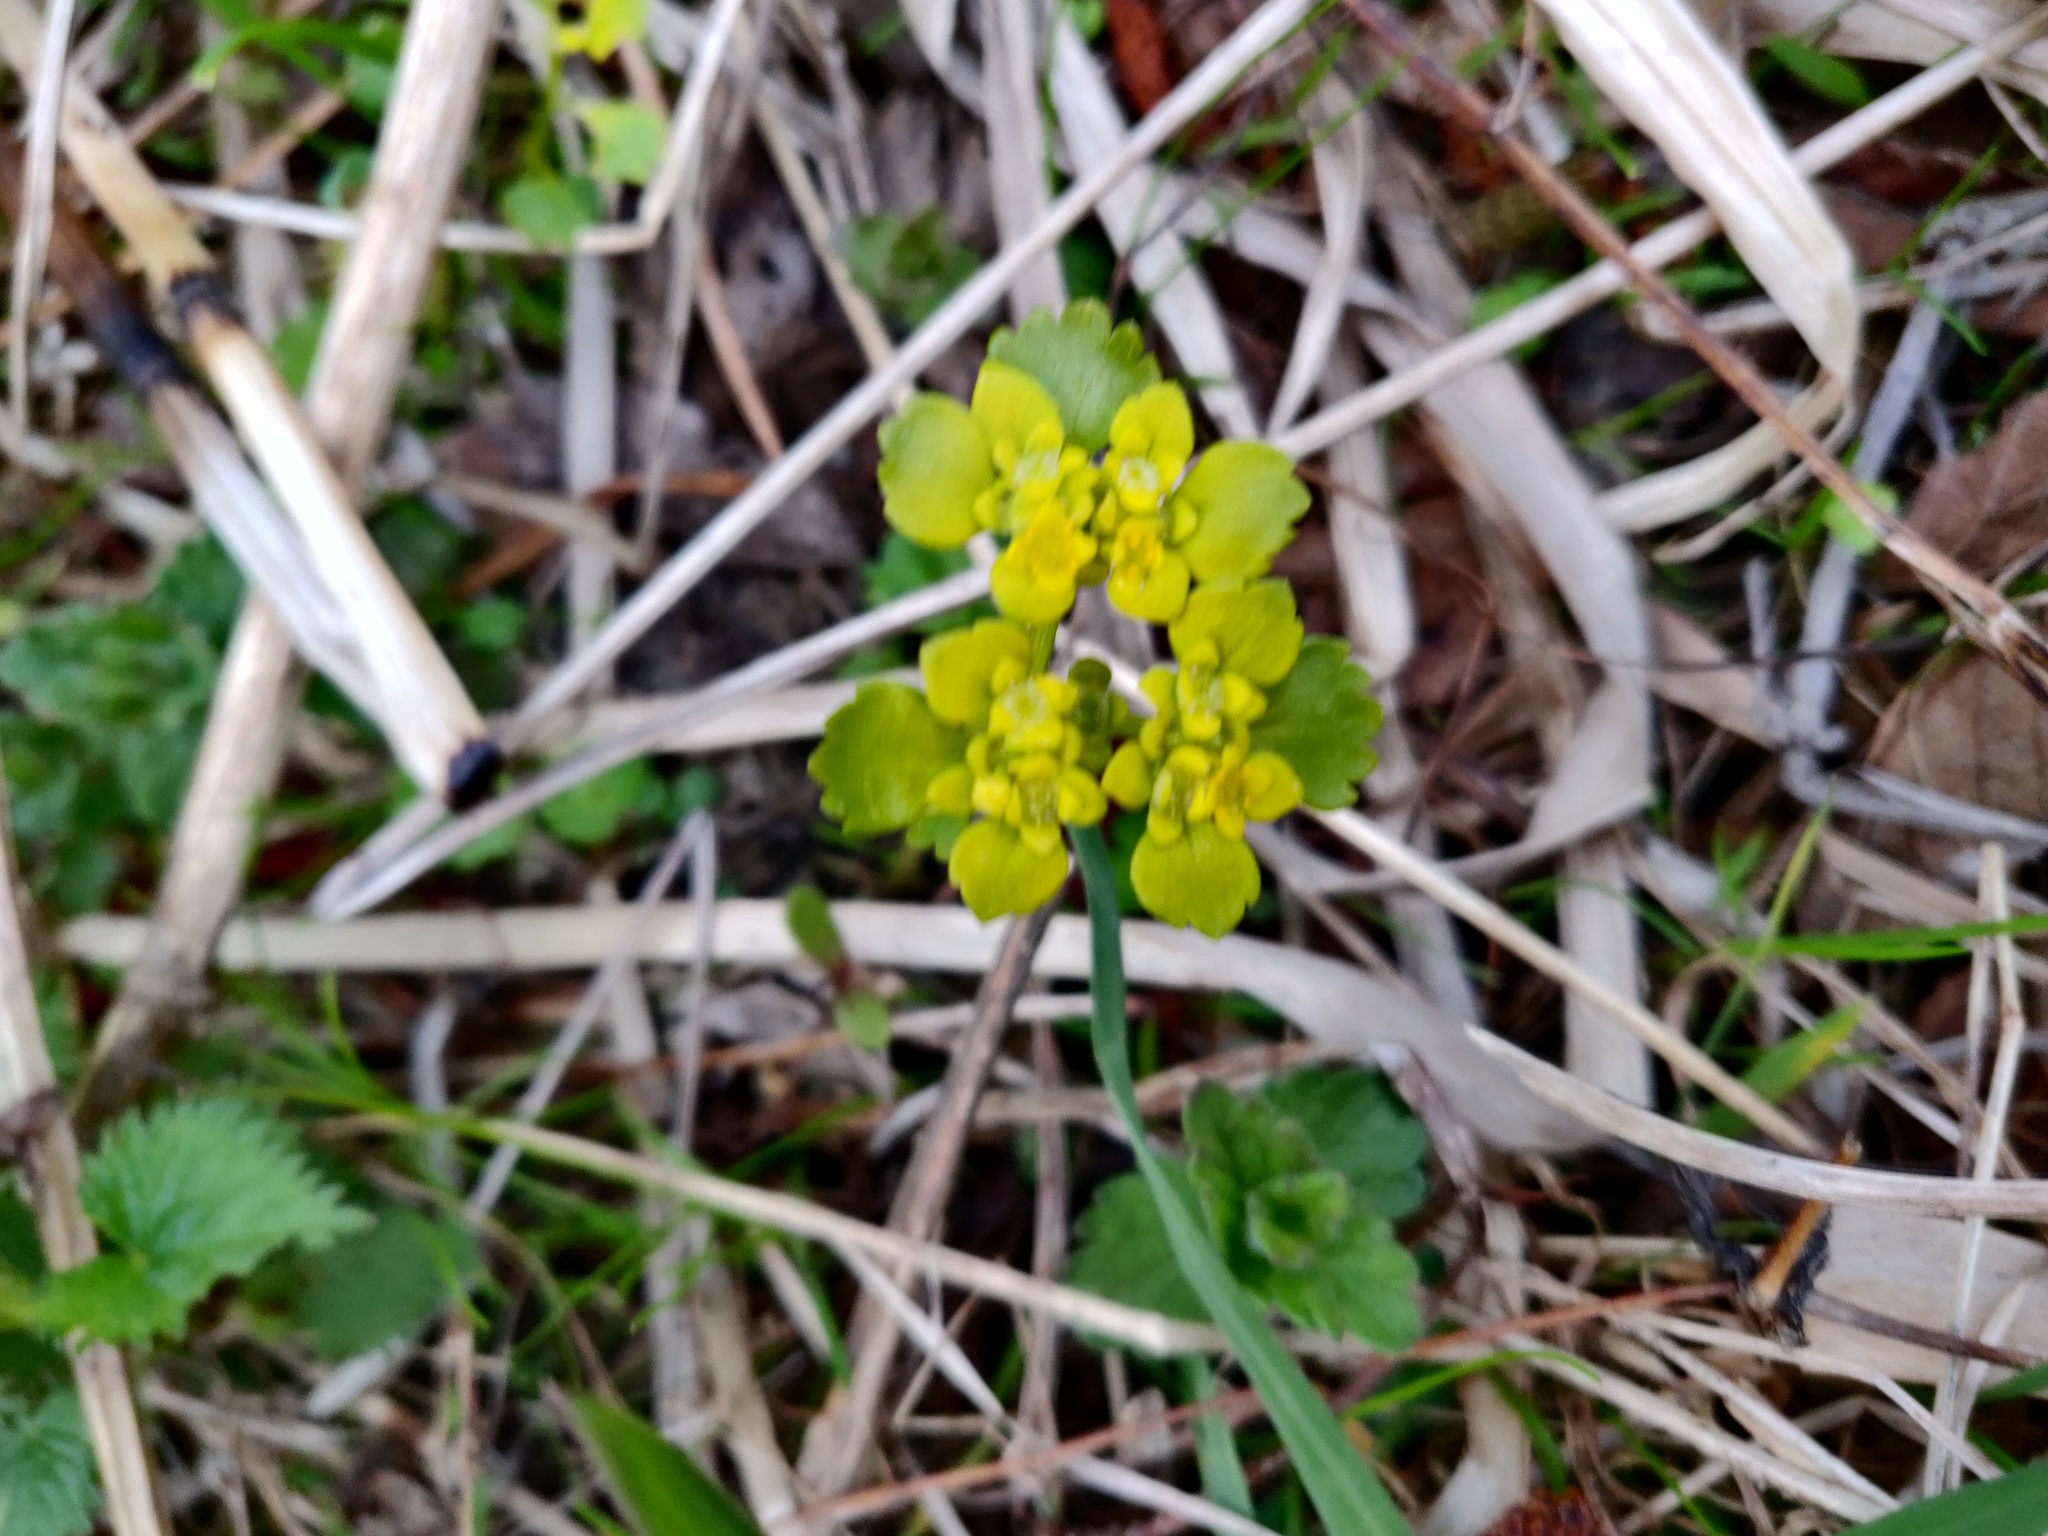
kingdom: Plantae
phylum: Tracheophyta
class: Magnoliopsida
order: Saxifragales
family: Saxifragaceae
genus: Chrysosplenium
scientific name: Chrysosplenium alternifolium
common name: Alternate-leaved golden-saxifrage
